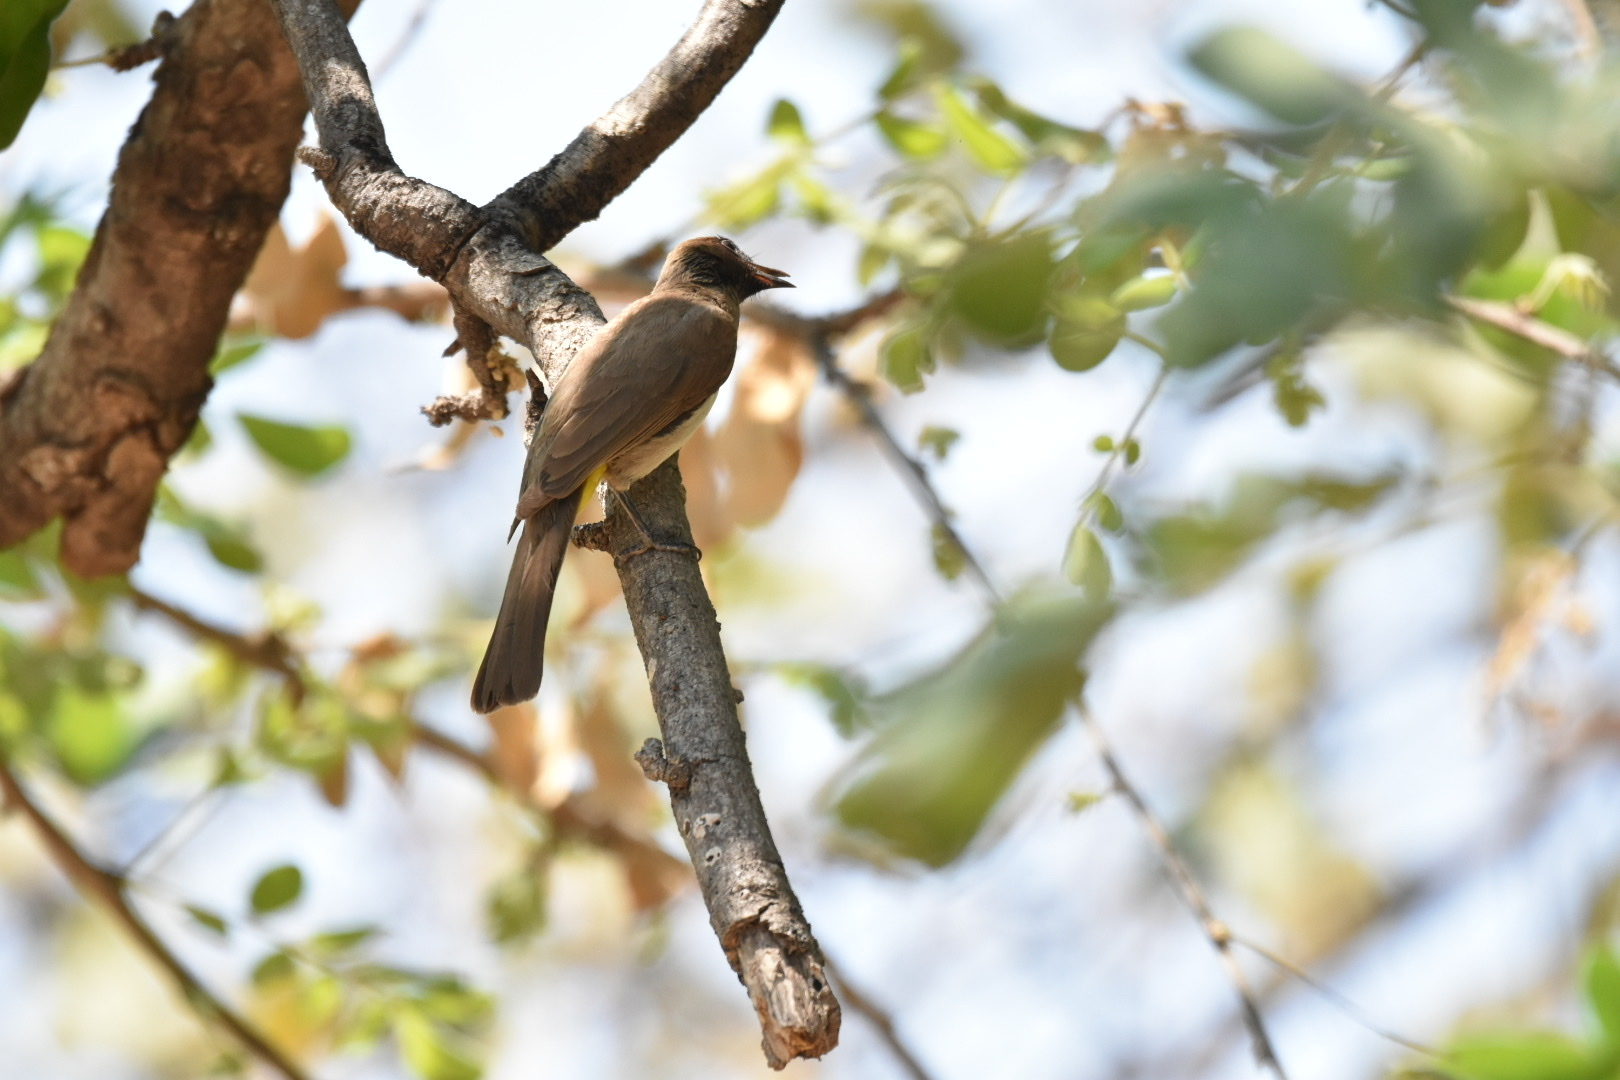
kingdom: Animalia
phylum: Chordata
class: Aves
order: Passeriformes
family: Pycnonotidae
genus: Pycnonotus
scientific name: Pycnonotus barbatus
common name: Common bulbul
